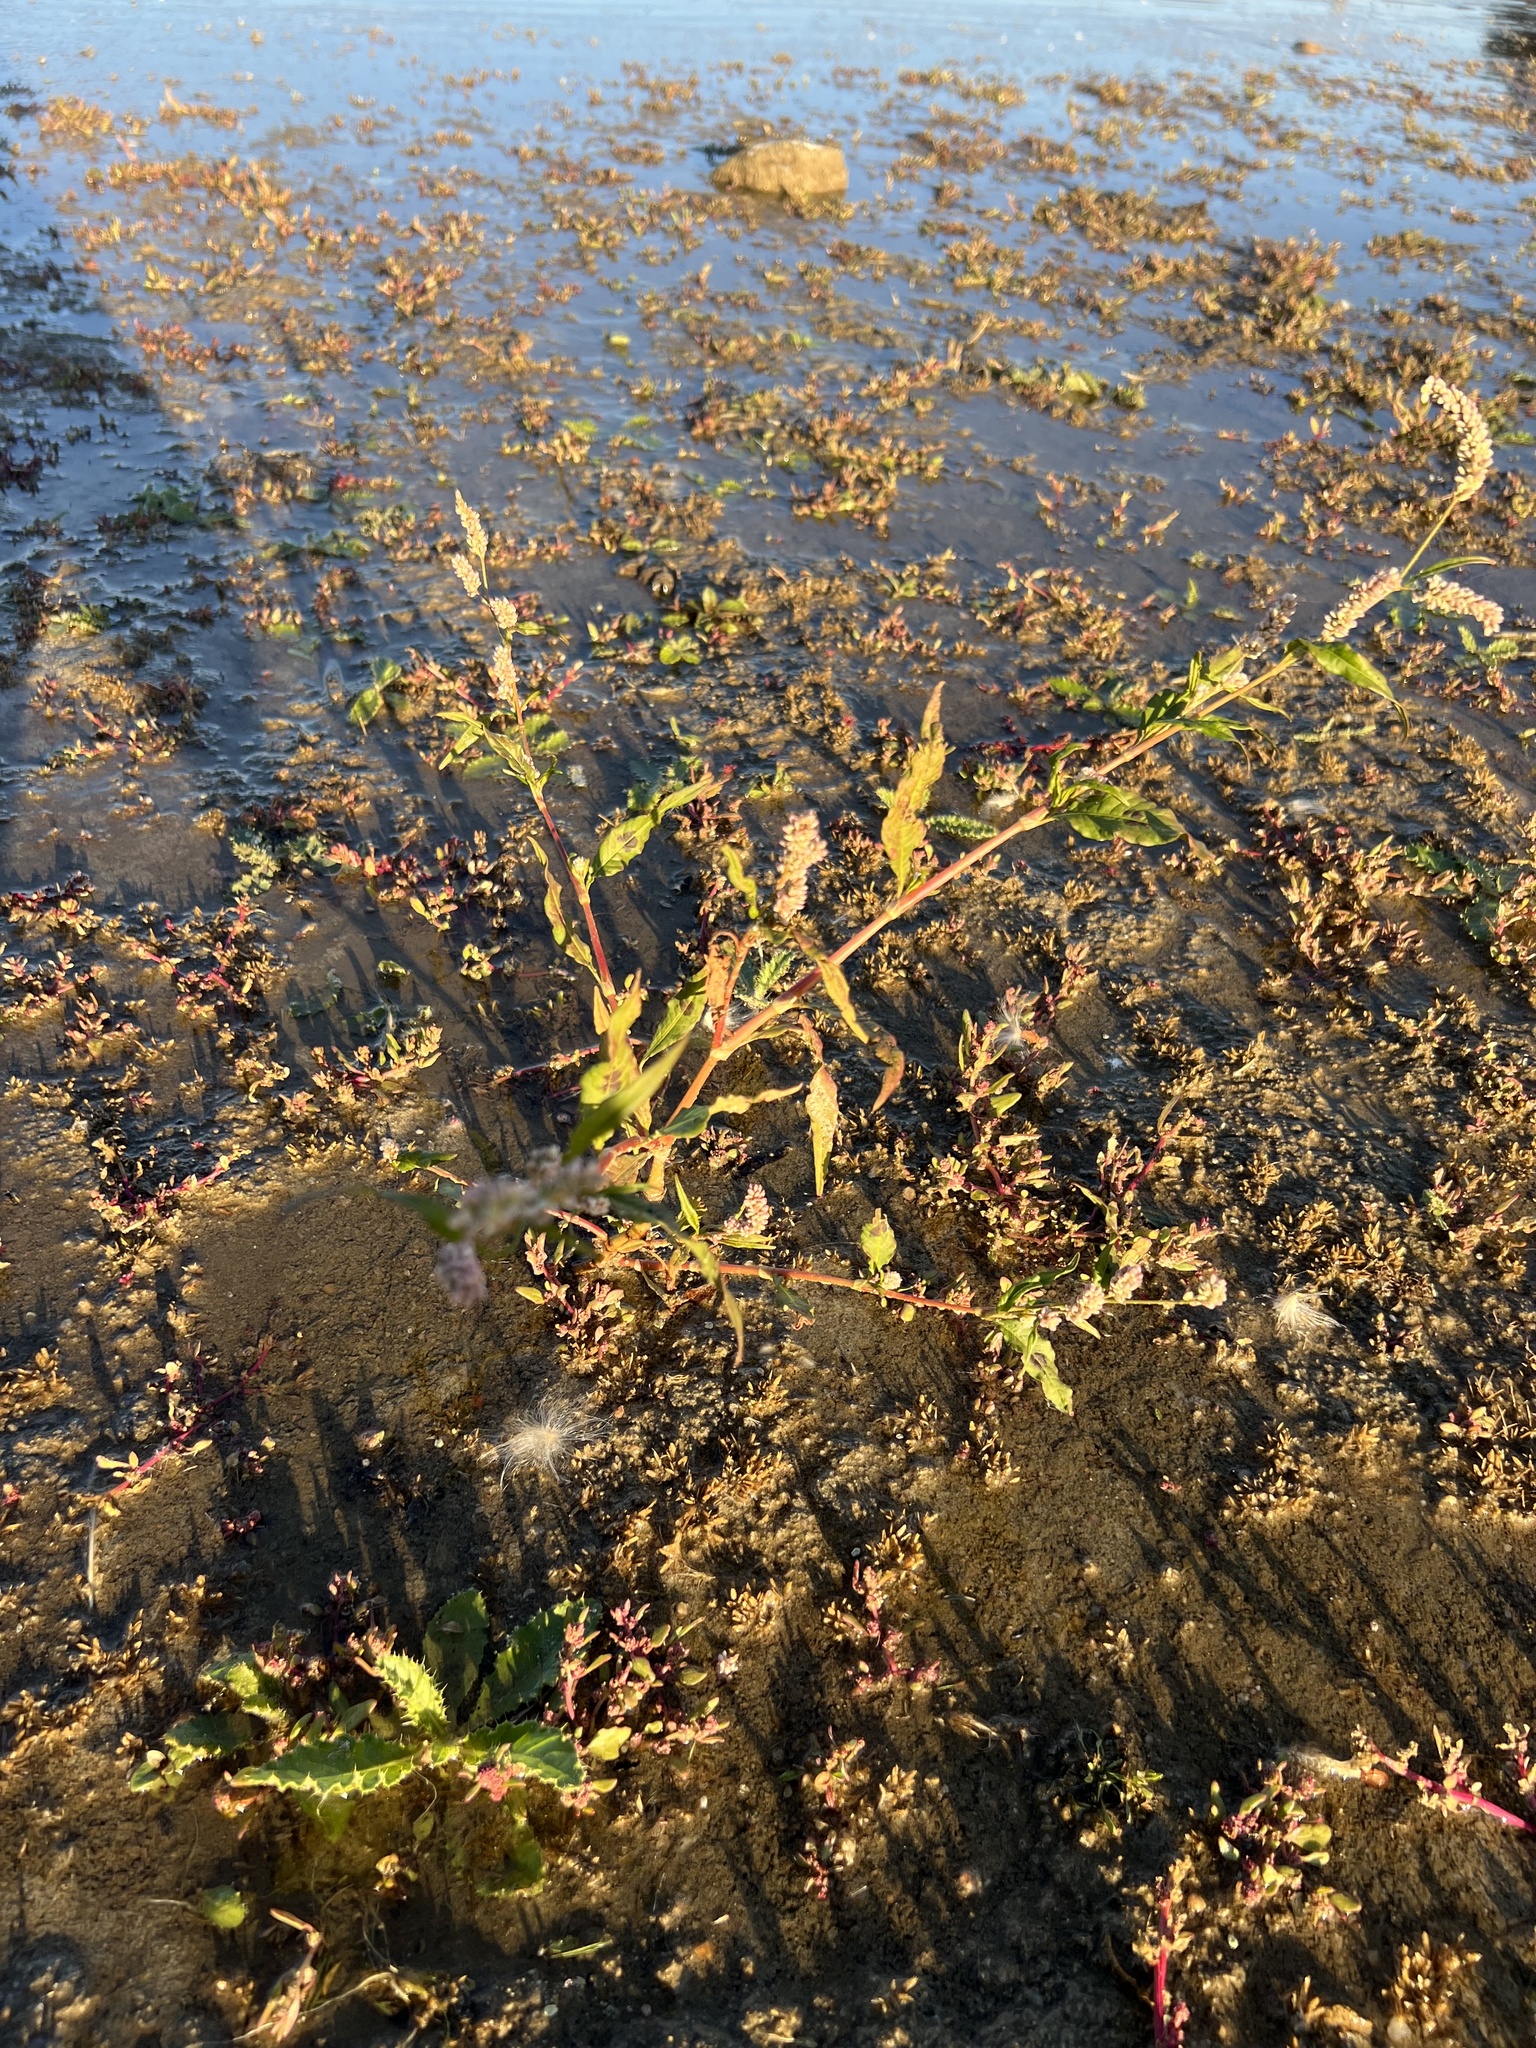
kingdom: Plantae
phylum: Tracheophyta
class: Magnoliopsida
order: Caryophyllales
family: Polygonaceae
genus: Persicaria
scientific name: Persicaria lapathifolia
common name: Curlytop knotweed
